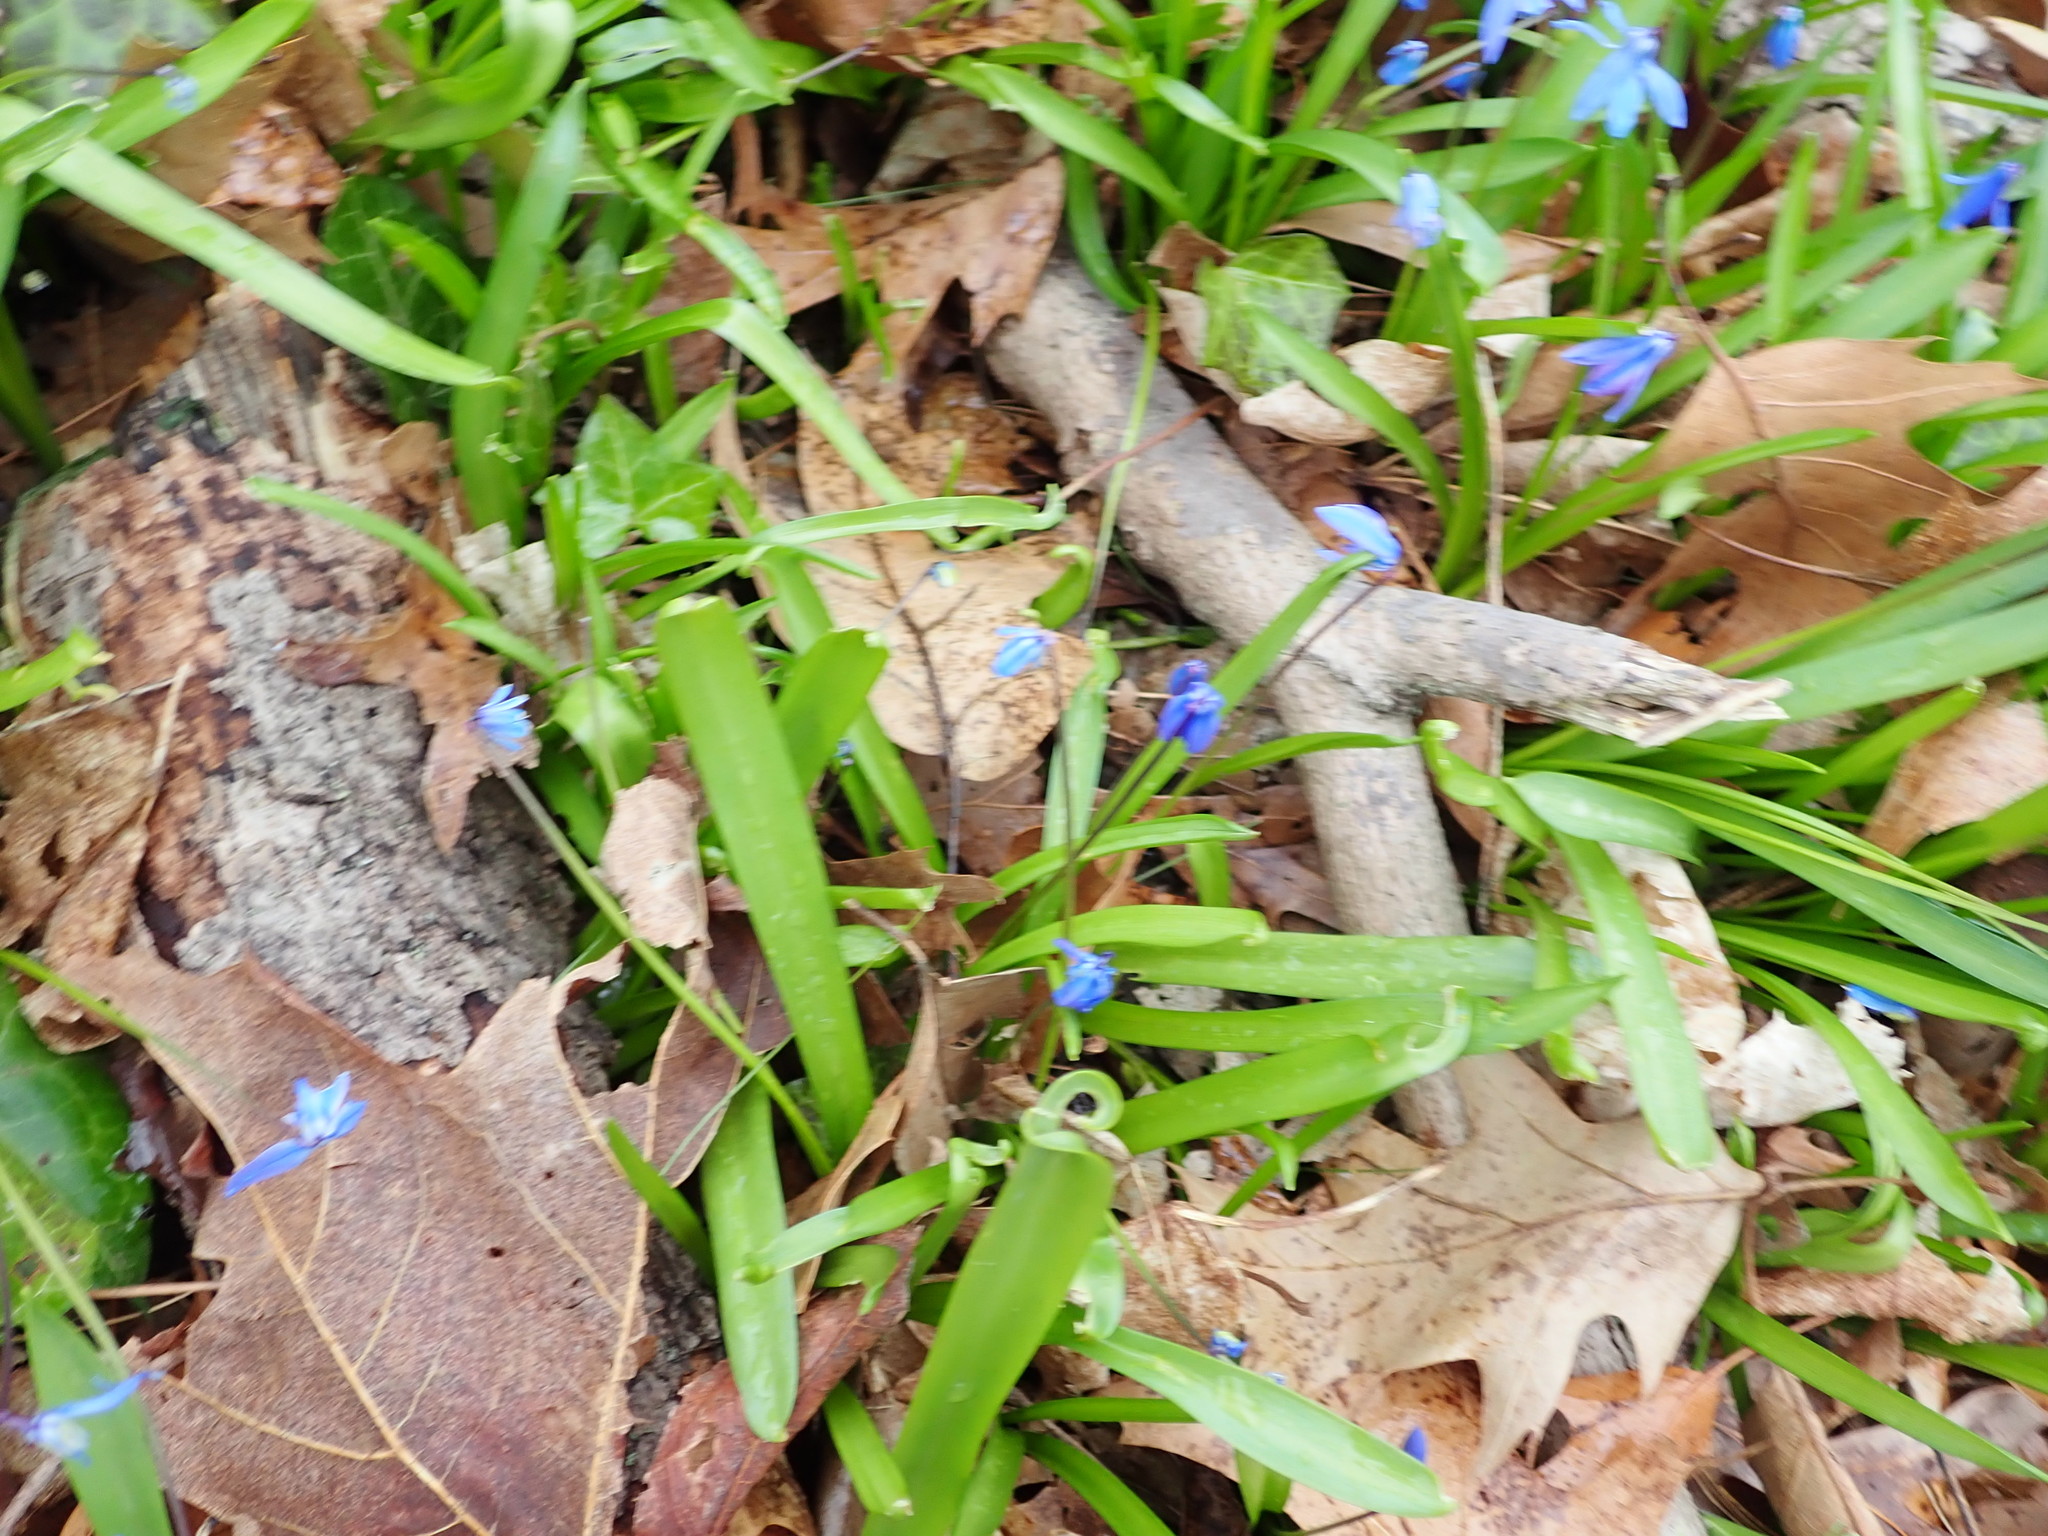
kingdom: Plantae
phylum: Tracheophyta
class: Liliopsida
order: Asparagales
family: Asparagaceae
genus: Scilla
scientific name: Scilla siberica
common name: Siberian squill
